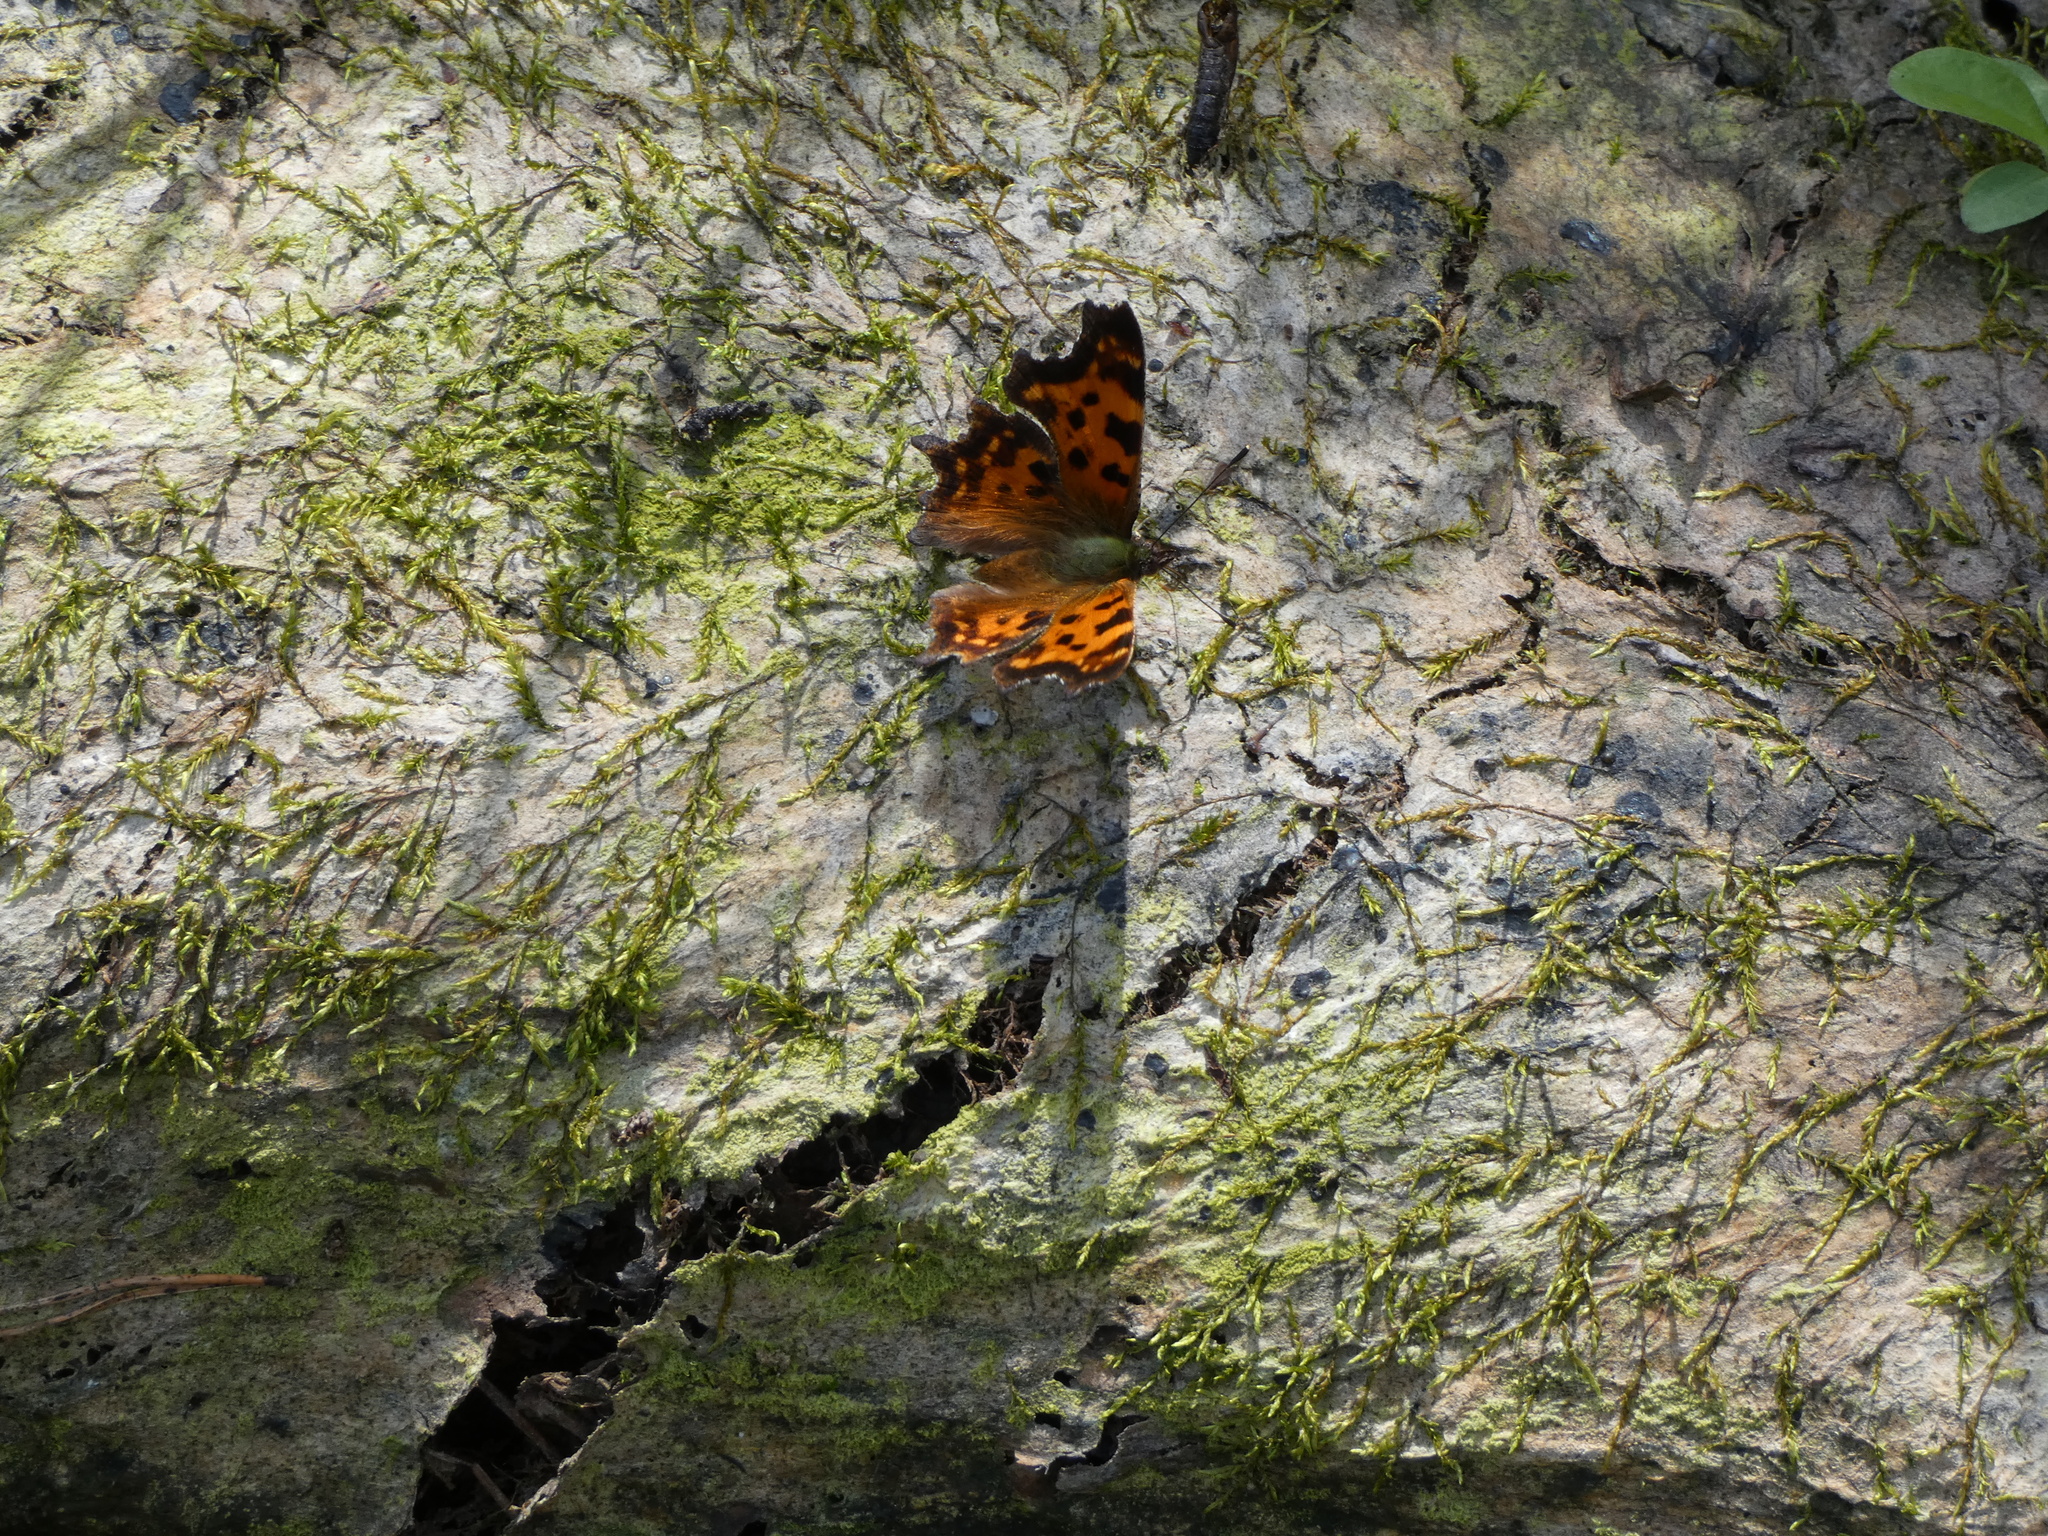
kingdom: Animalia
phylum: Arthropoda
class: Insecta
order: Lepidoptera
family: Nymphalidae
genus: Polygonia
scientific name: Polygonia c-album
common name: Comma
